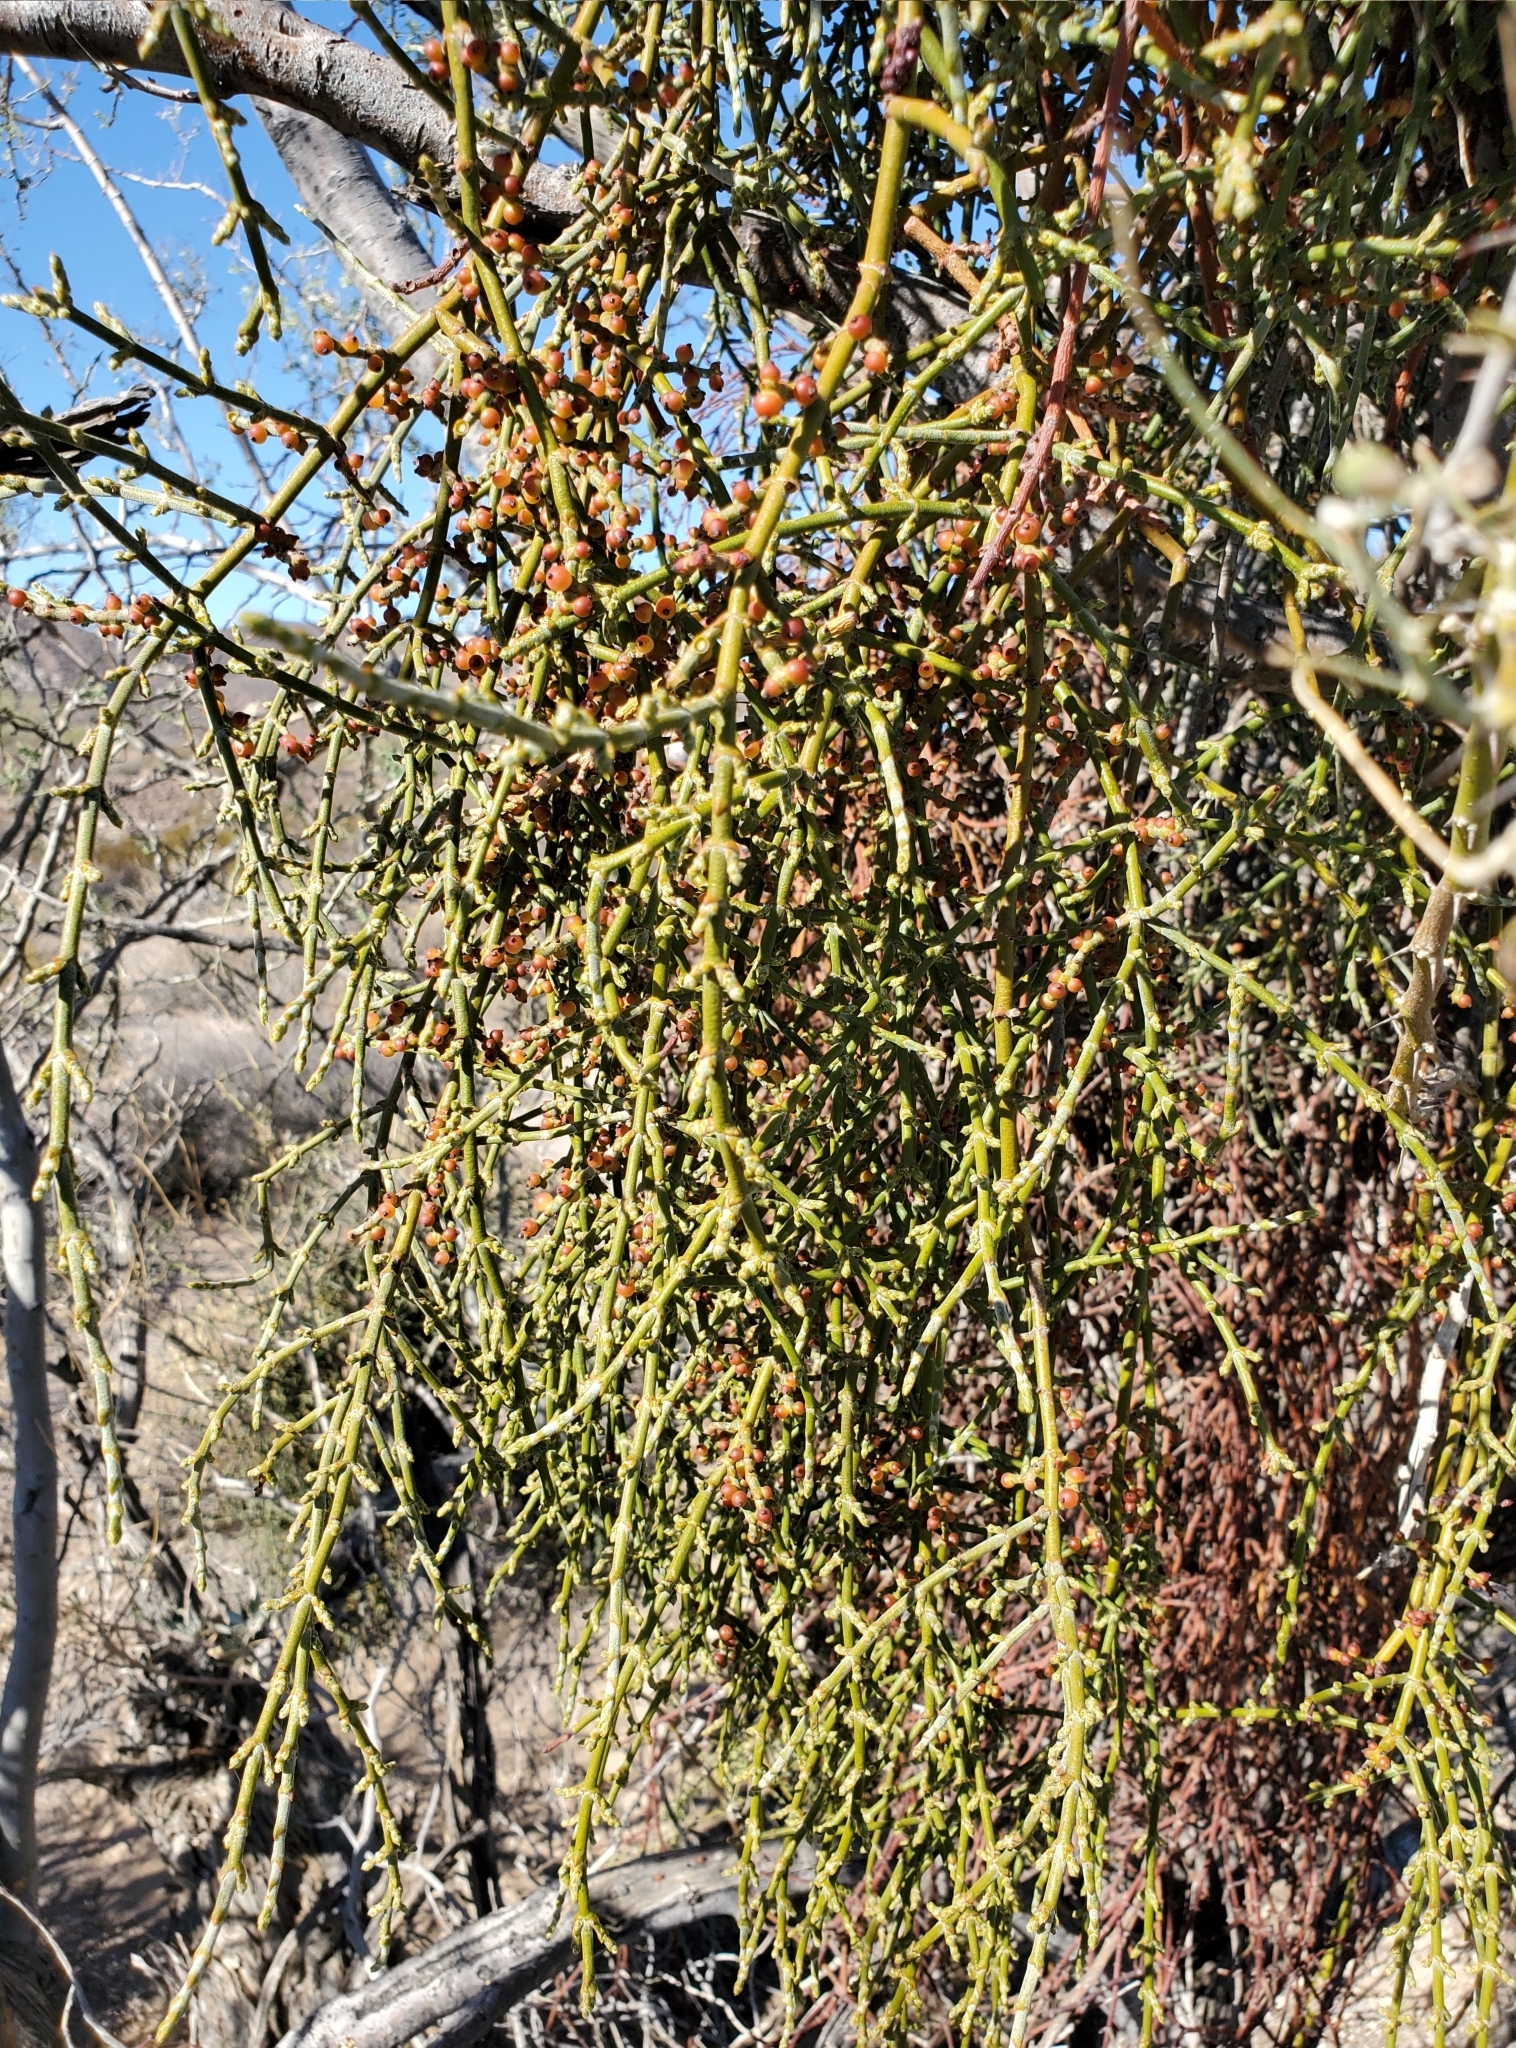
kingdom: Plantae
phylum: Tracheophyta
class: Magnoliopsida
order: Santalales
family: Viscaceae
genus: Phoradendron
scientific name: Phoradendron californicum
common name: Acacia mistletoe
